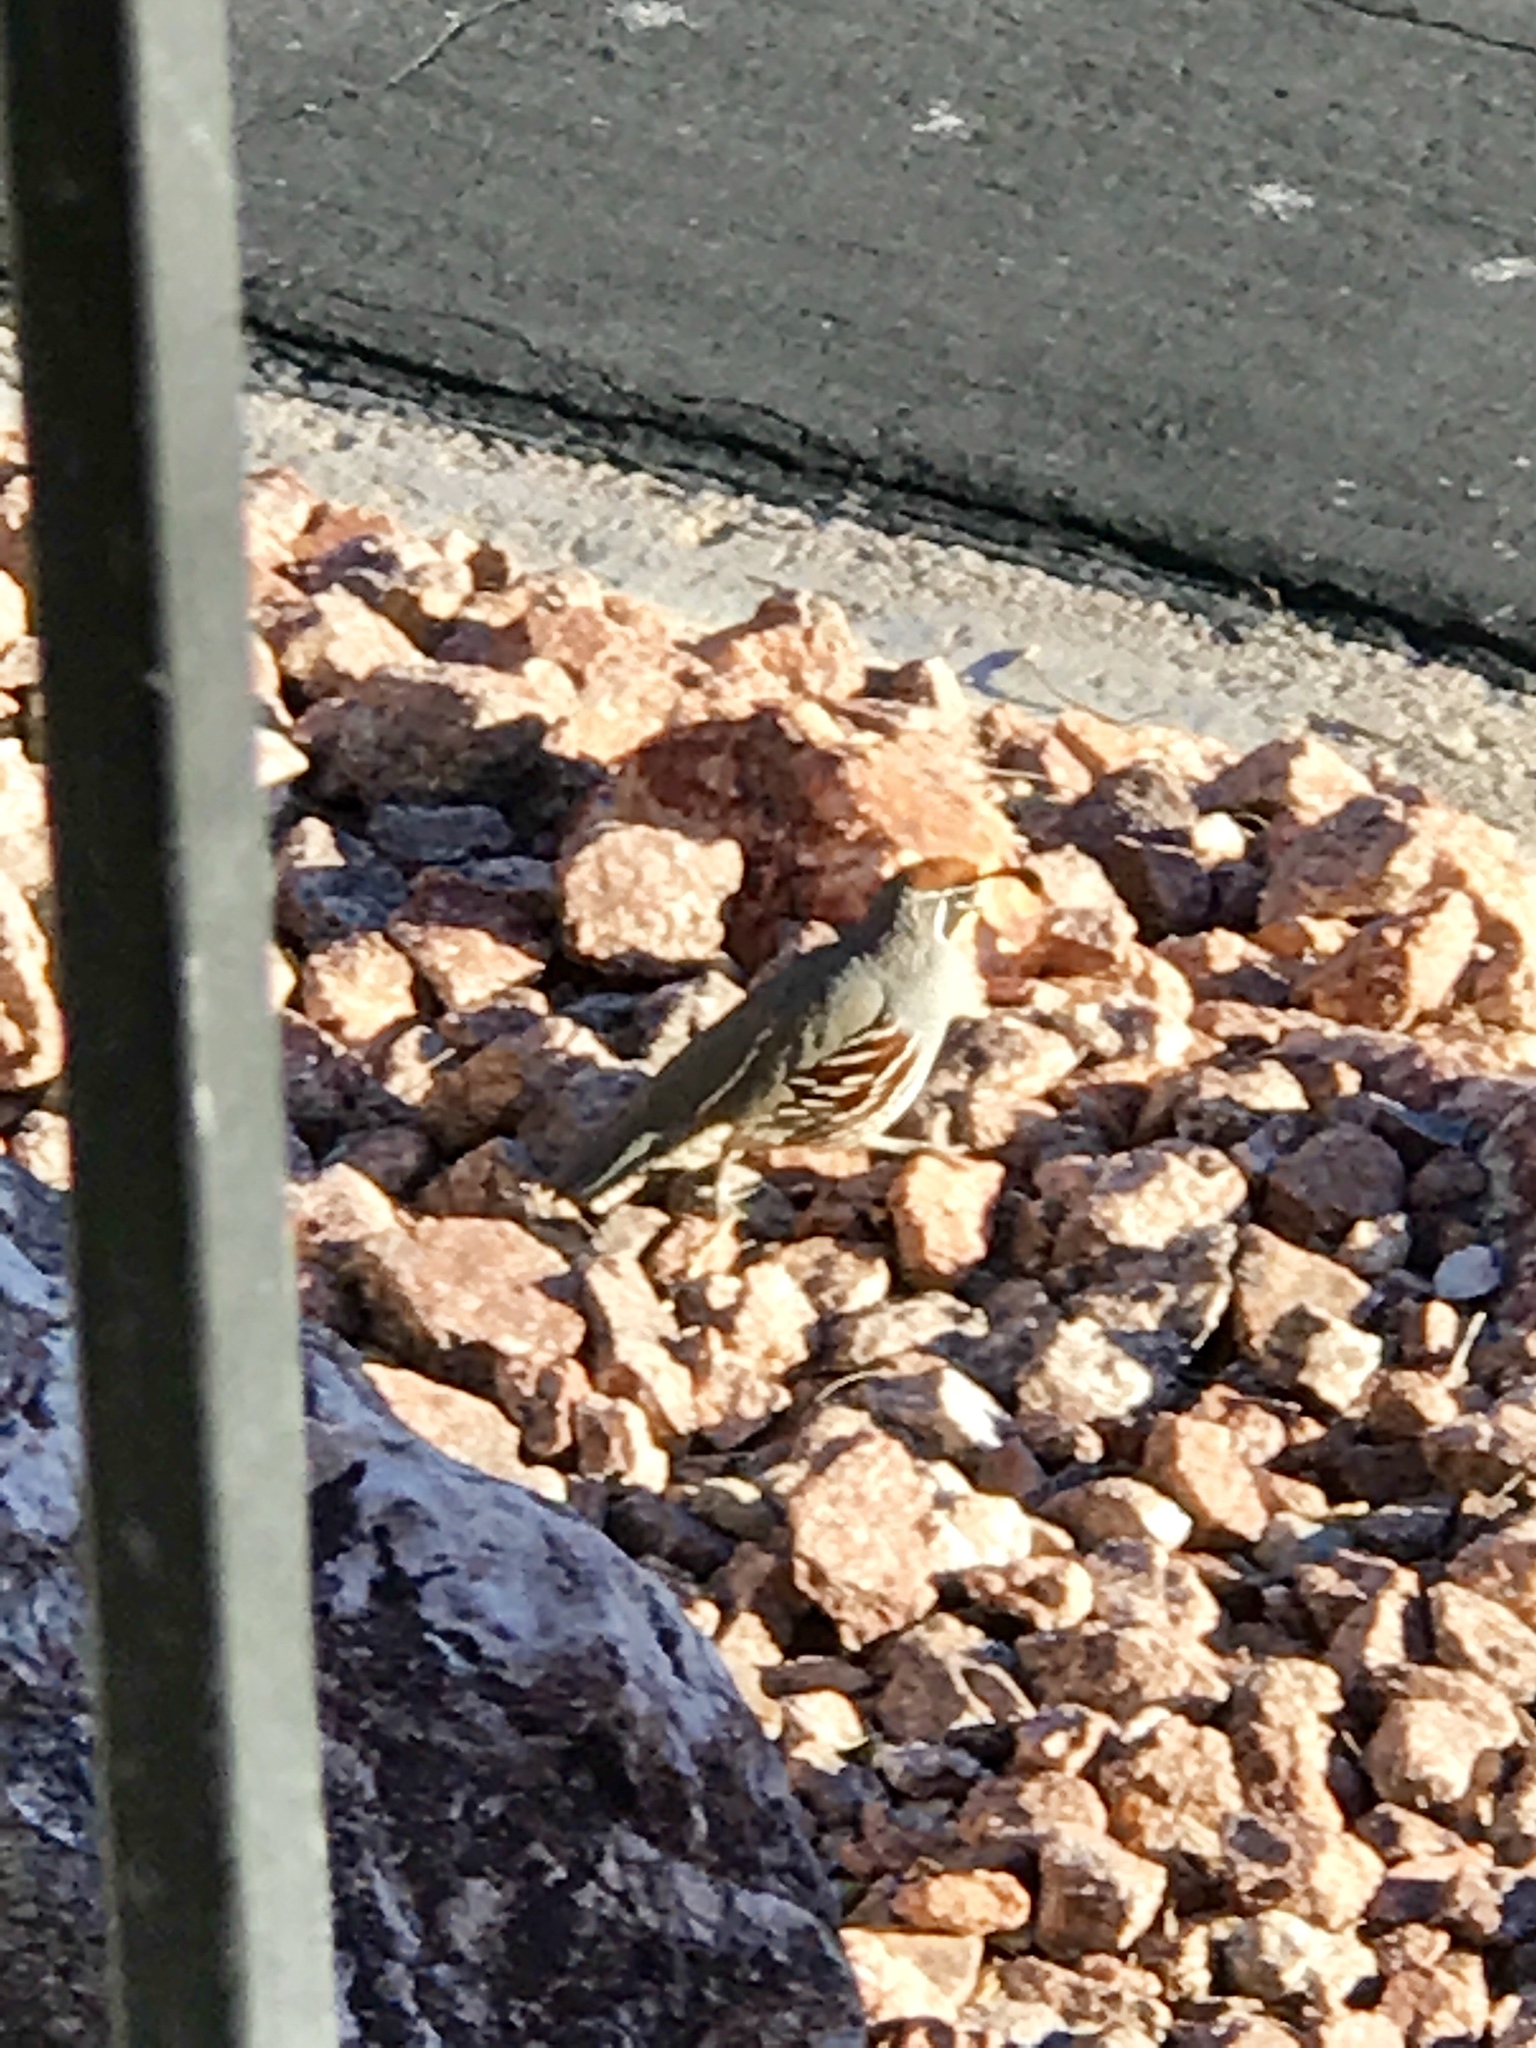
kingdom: Animalia
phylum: Chordata
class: Aves
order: Galliformes
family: Odontophoridae
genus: Callipepla
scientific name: Callipepla gambelii
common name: Gambel's quail
